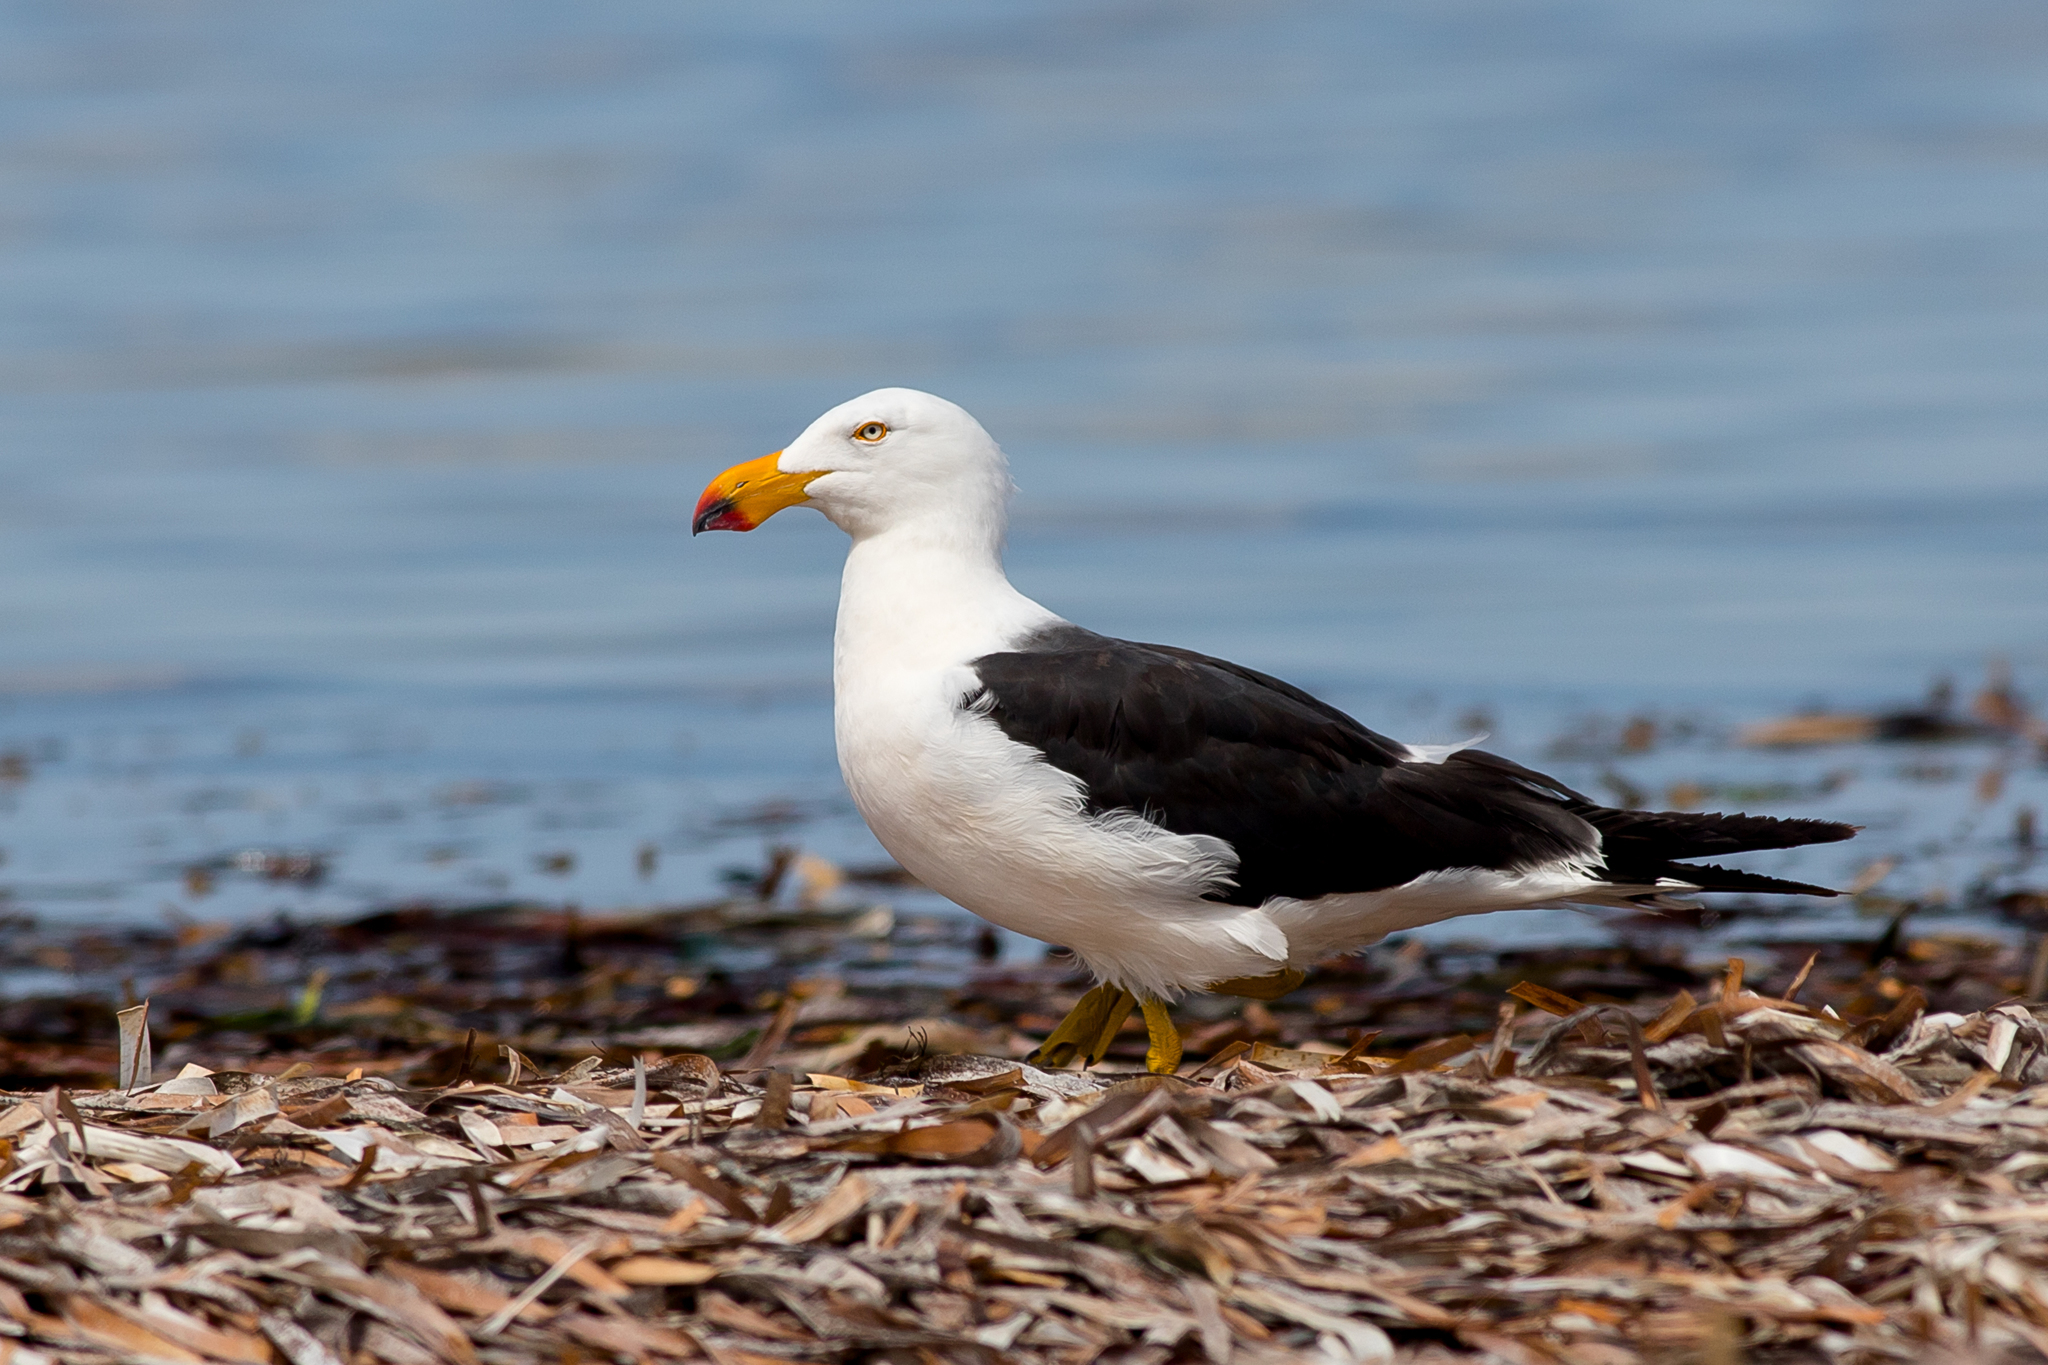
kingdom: Animalia
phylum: Chordata
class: Aves
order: Charadriiformes
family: Laridae
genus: Larus
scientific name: Larus pacificus
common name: Pacific gull
